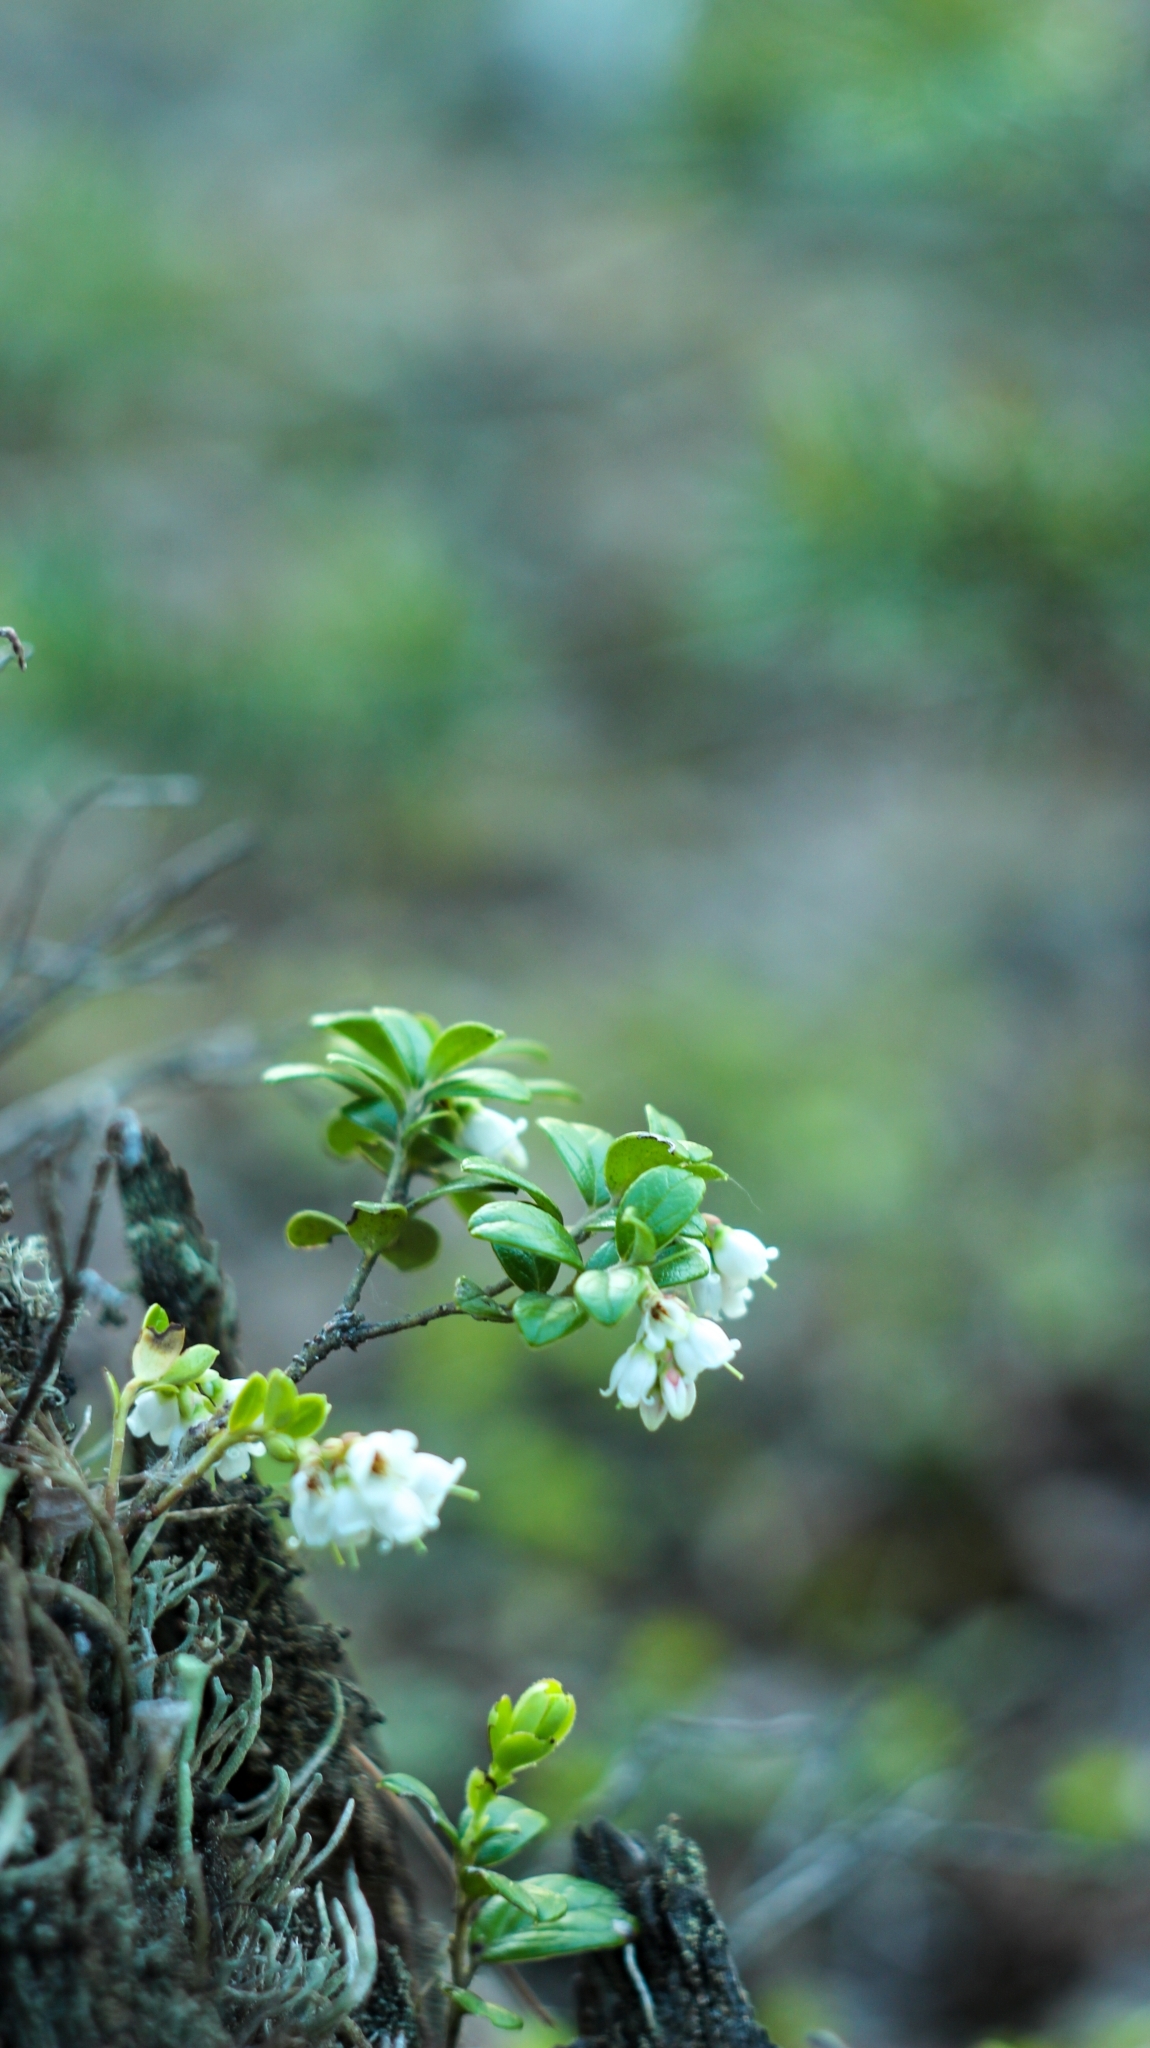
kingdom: Plantae
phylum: Tracheophyta
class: Magnoliopsida
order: Ericales
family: Ericaceae
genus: Vaccinium
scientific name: Vaccinium vitis-idaea
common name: Cowberry
